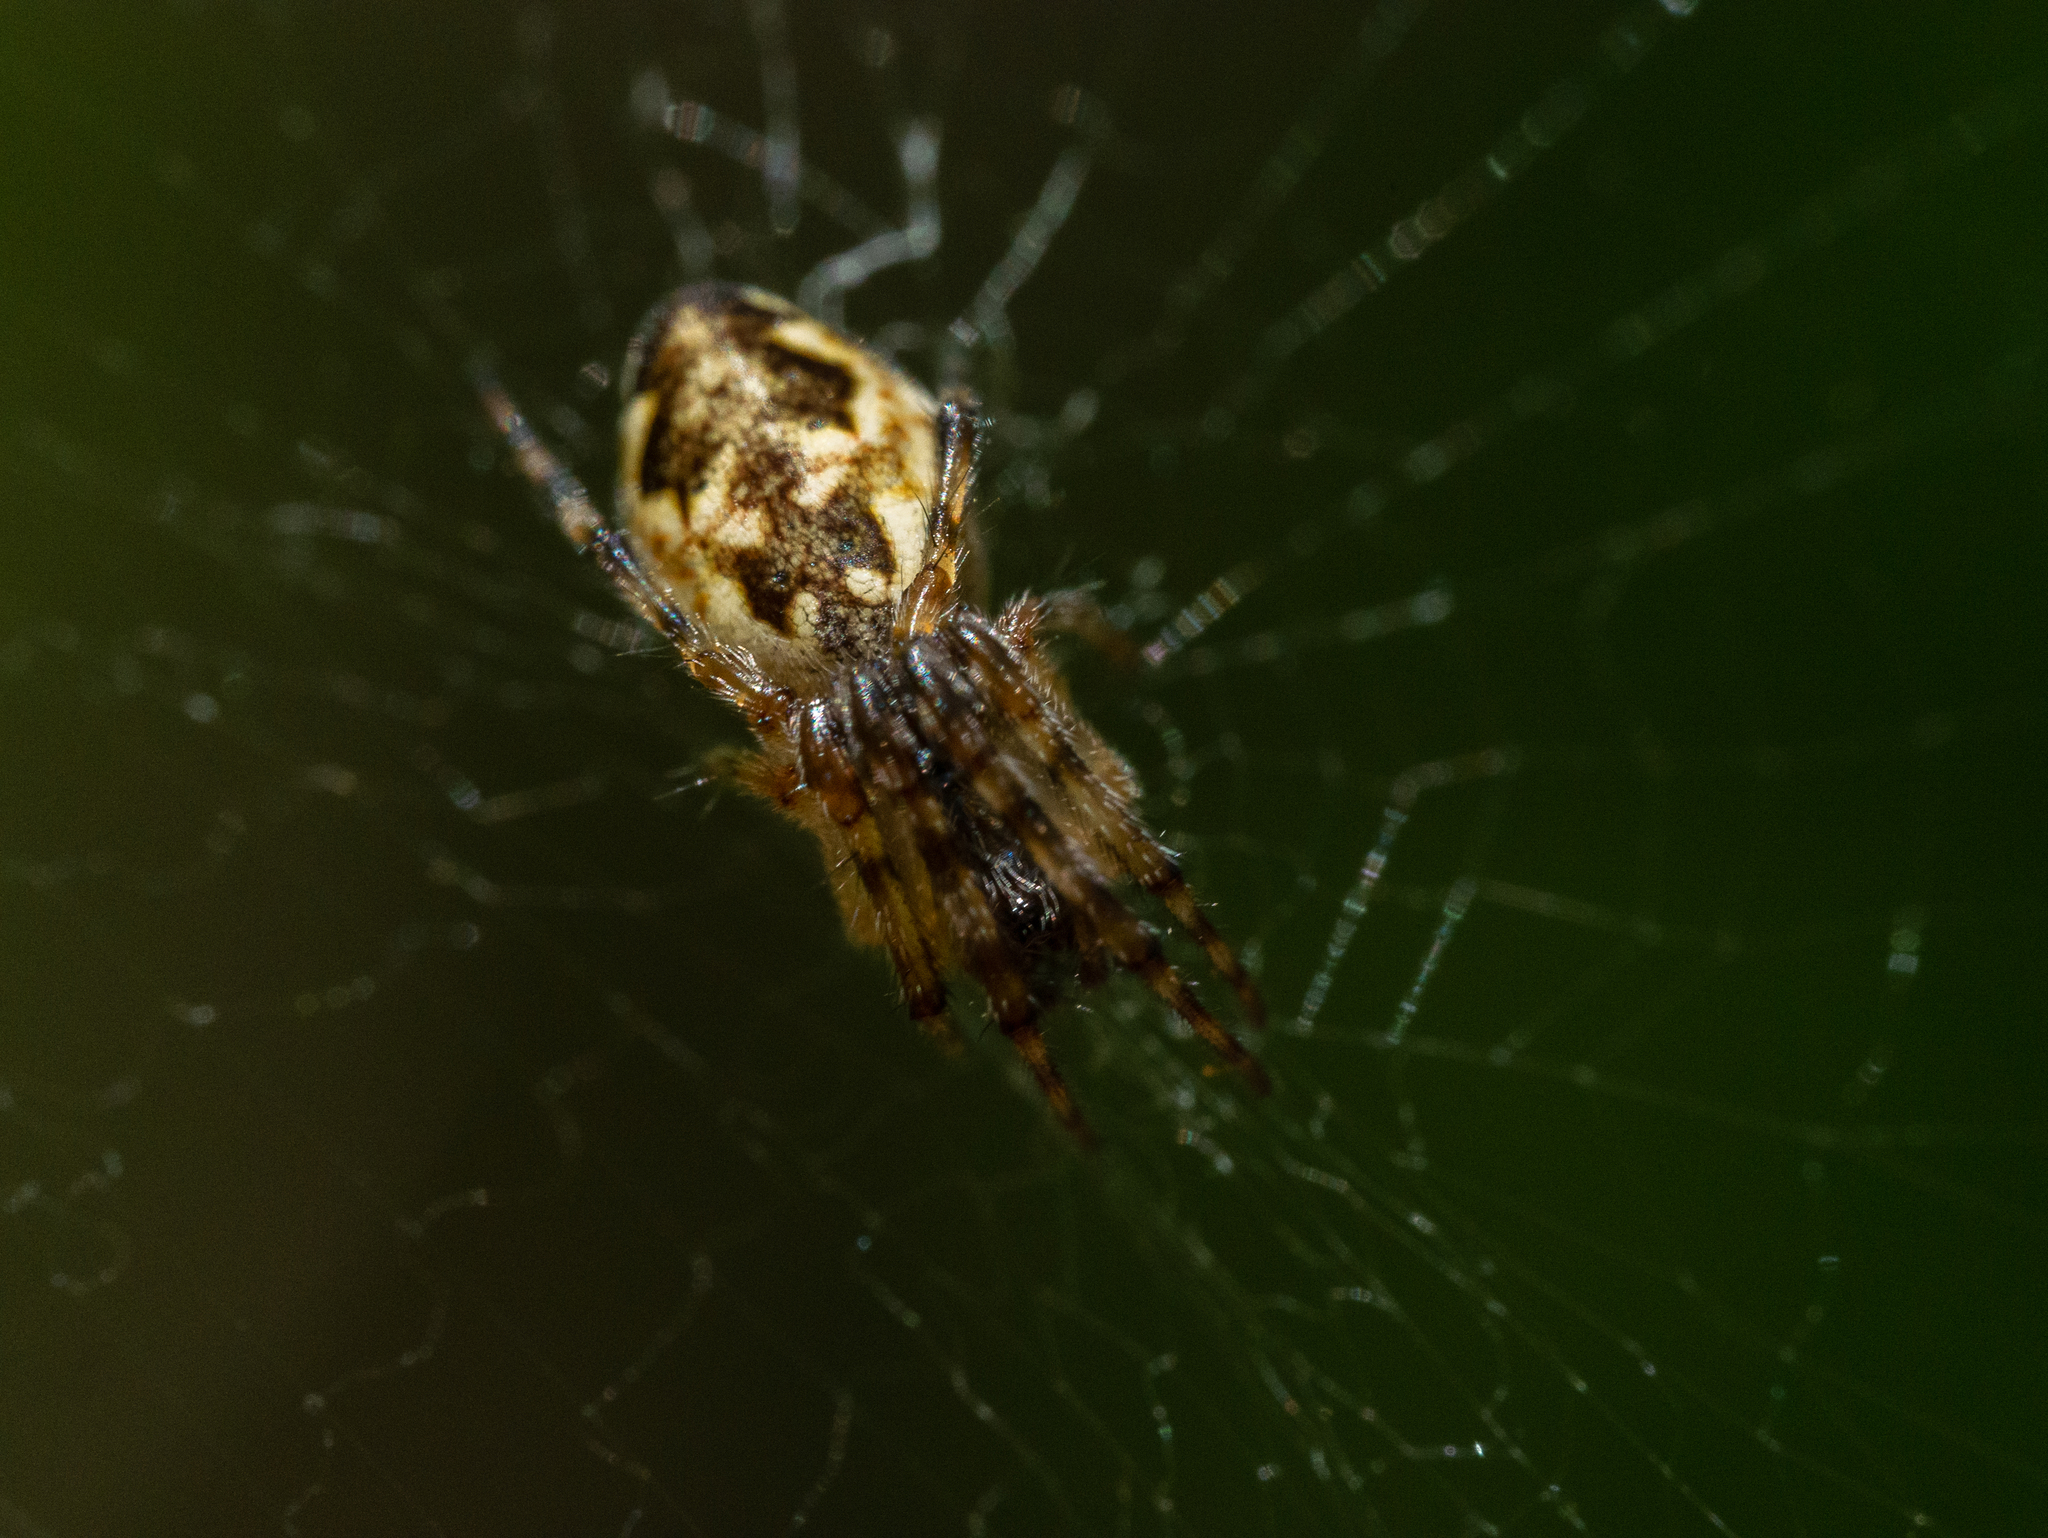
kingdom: Animalia
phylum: Arthropoda
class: Arachnida
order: Araneae
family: Araneidae
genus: Cyclosa
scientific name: Cyclosa conica
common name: Conical trashline orbweaver
